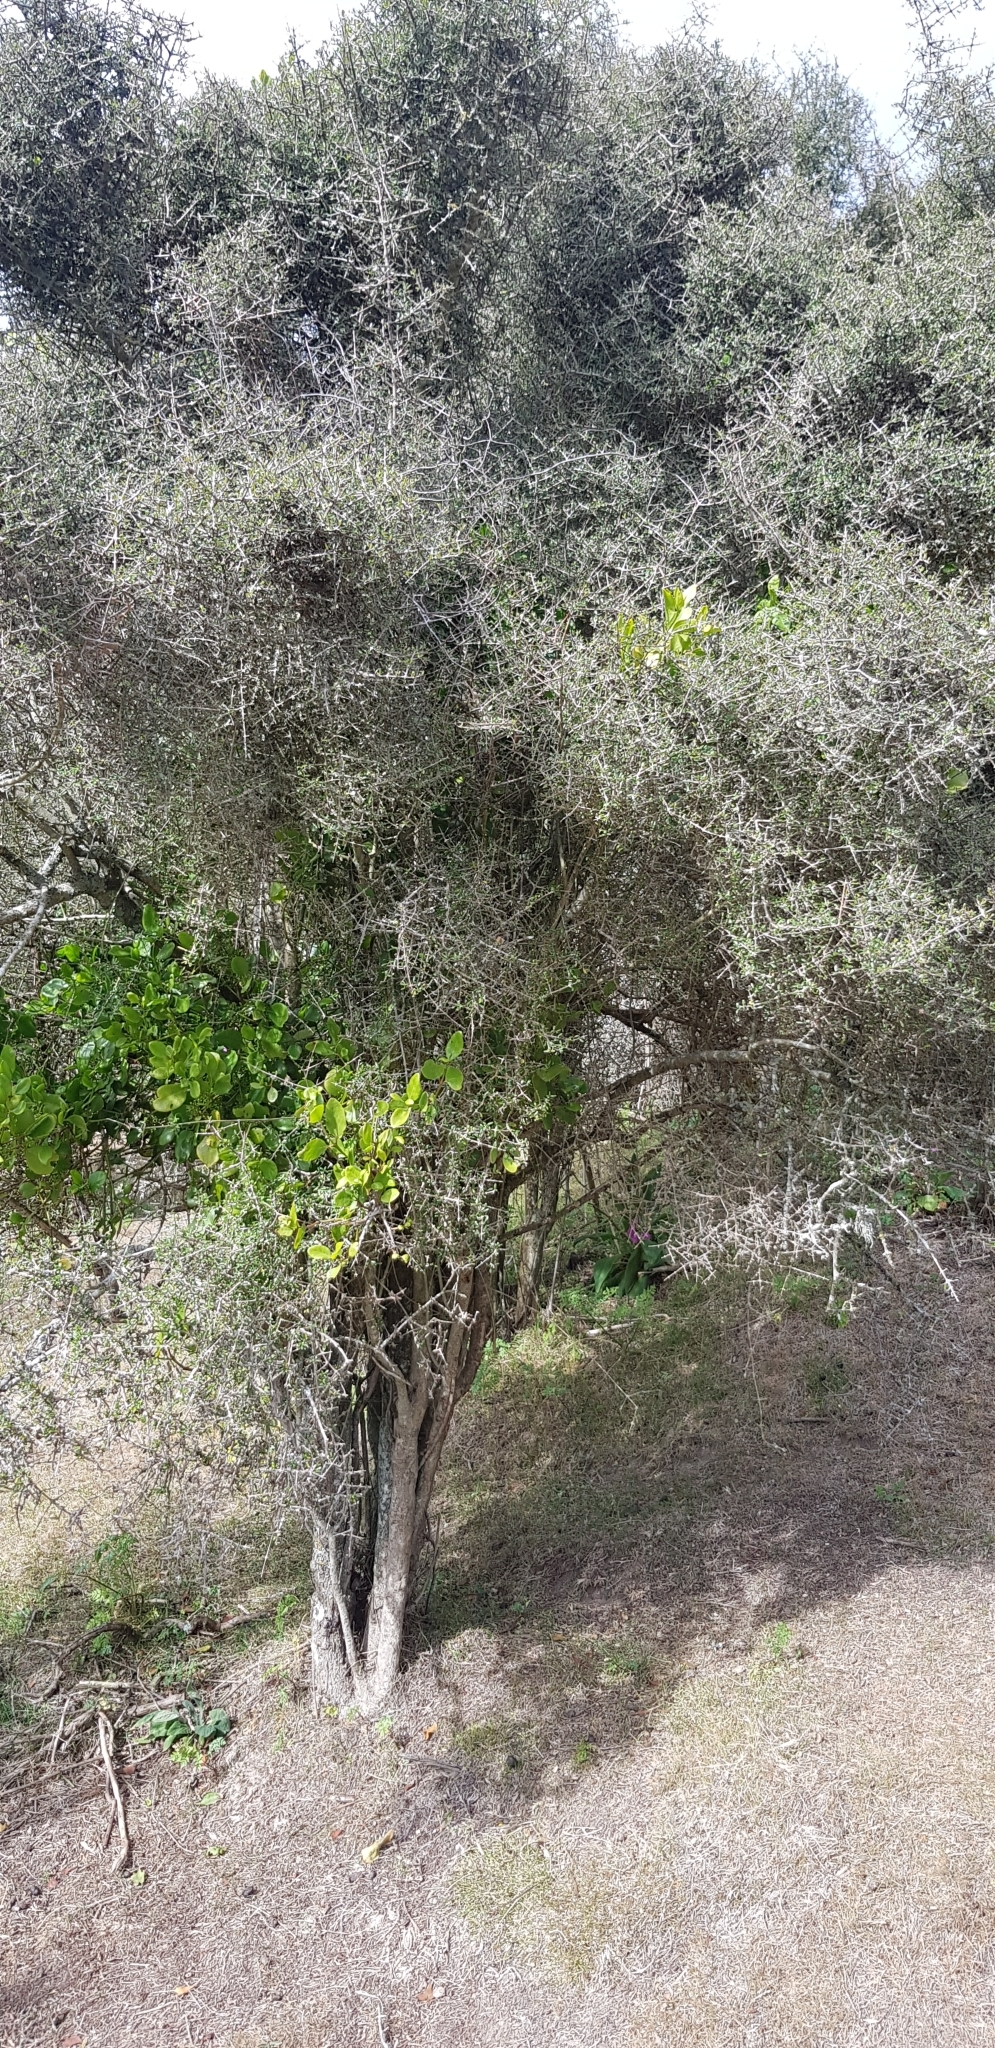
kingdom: Plantae
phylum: Tracheophyta
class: Magnoliopsida
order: Santalales
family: Loranthaceae
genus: Ileostylus
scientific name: Ileostylus micranthus
